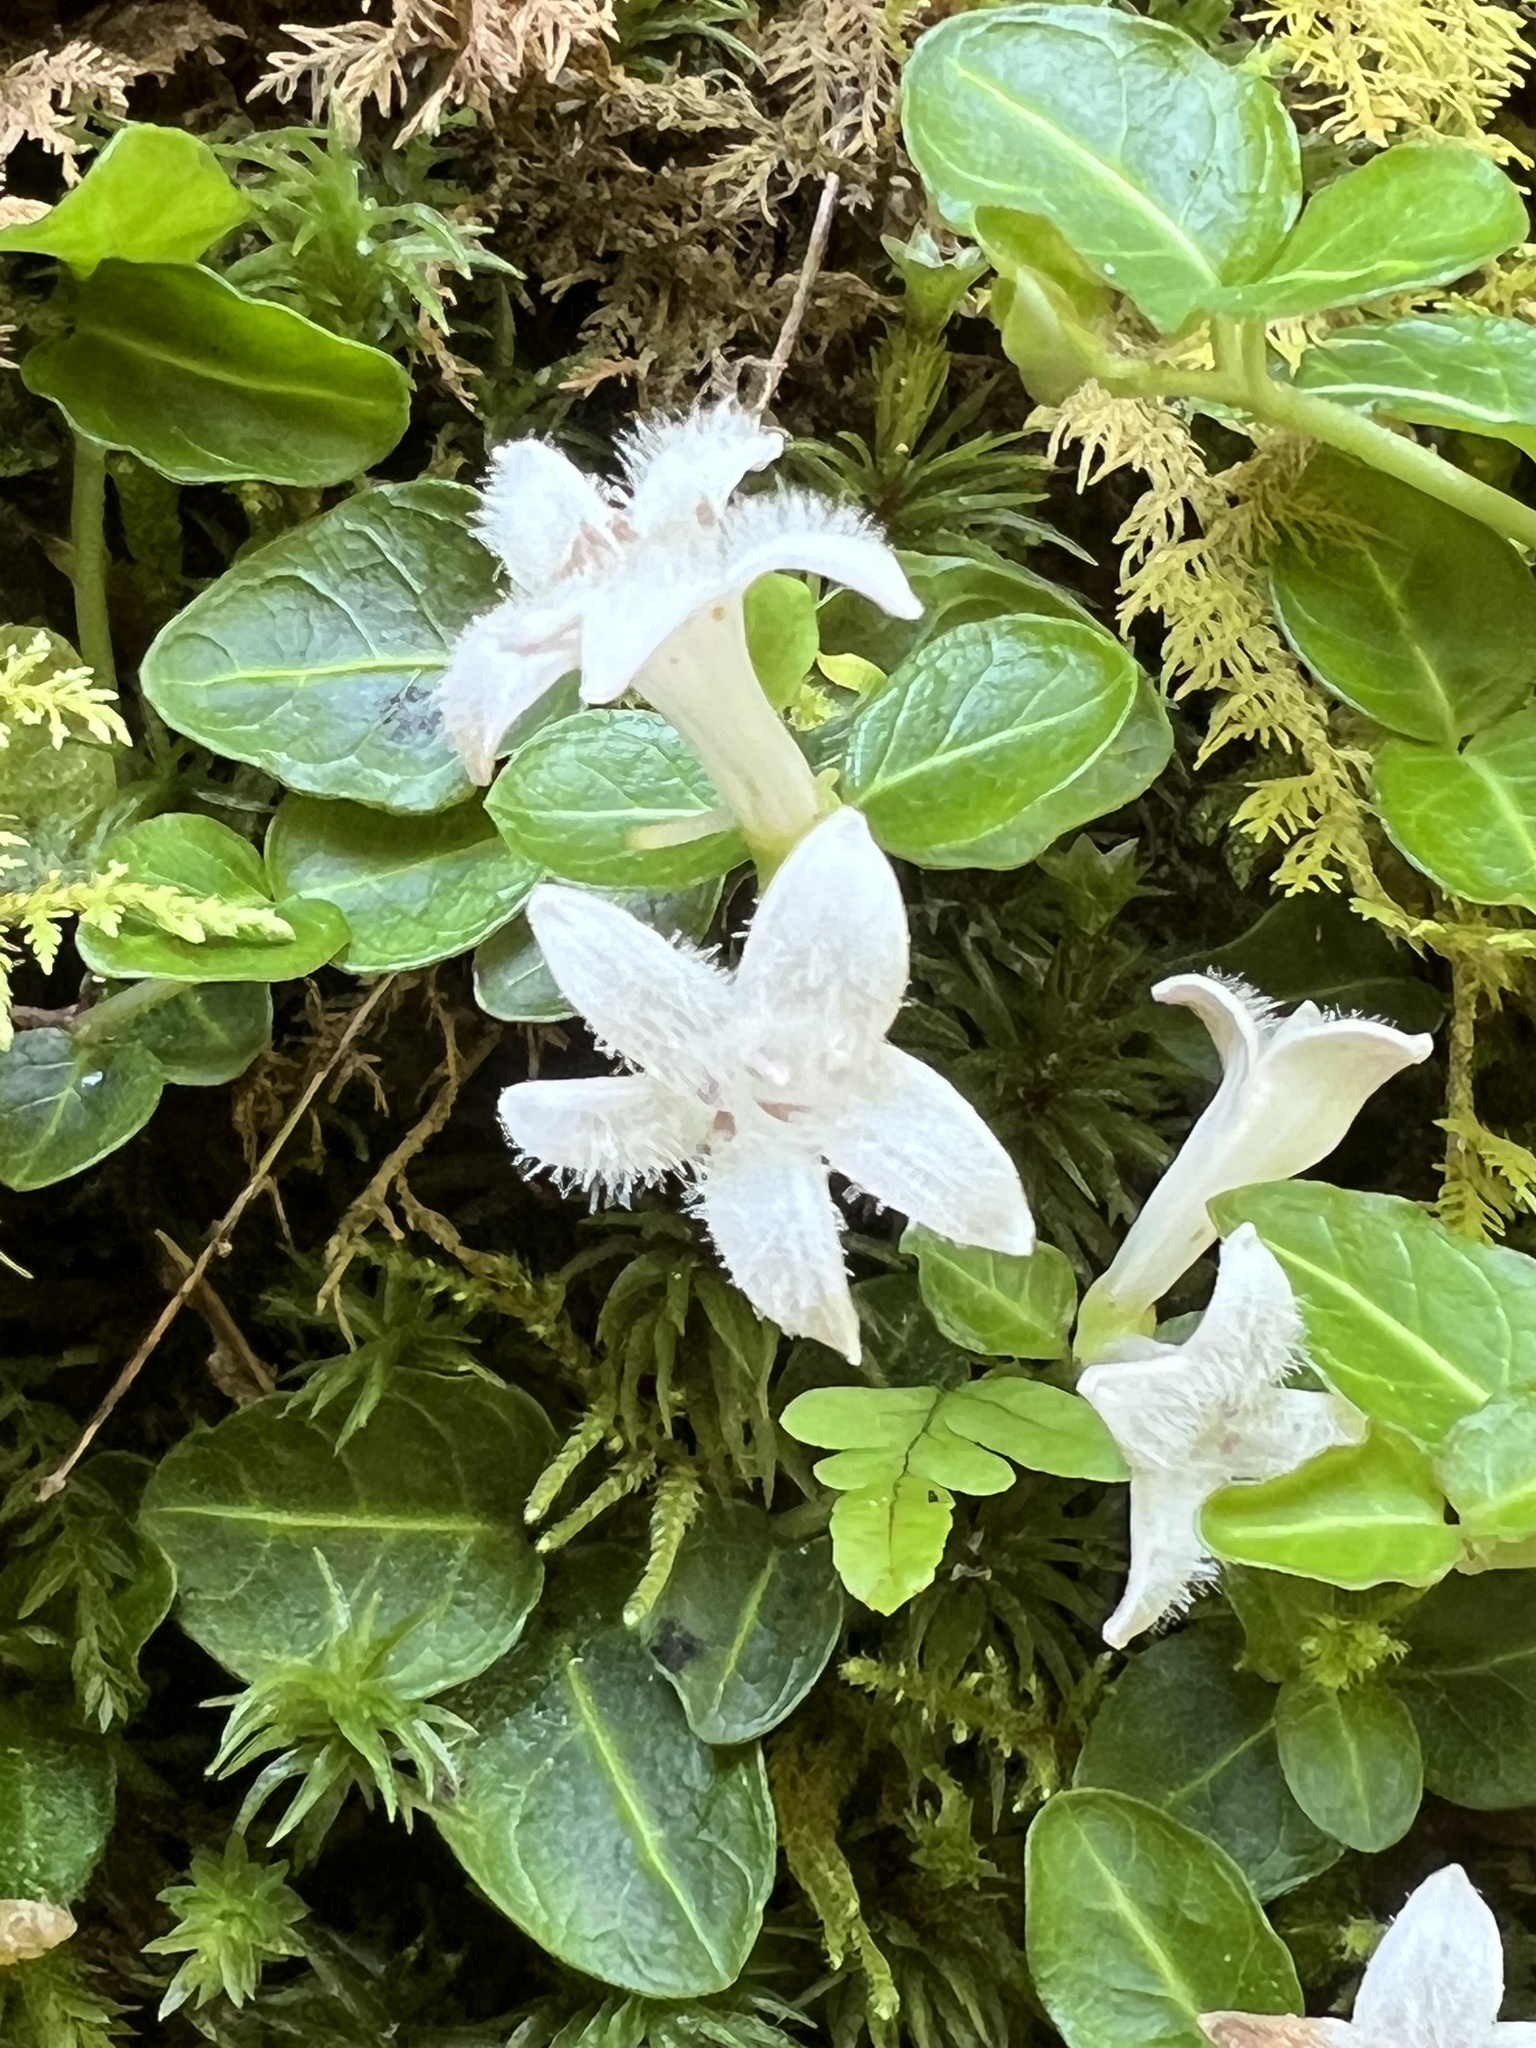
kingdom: Plantae
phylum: Tracheophyta
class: Magnoliopsida
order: Gentianales
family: Rubiaceae
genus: Mitchella
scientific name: Mitchella repens
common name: Partridge-berry
